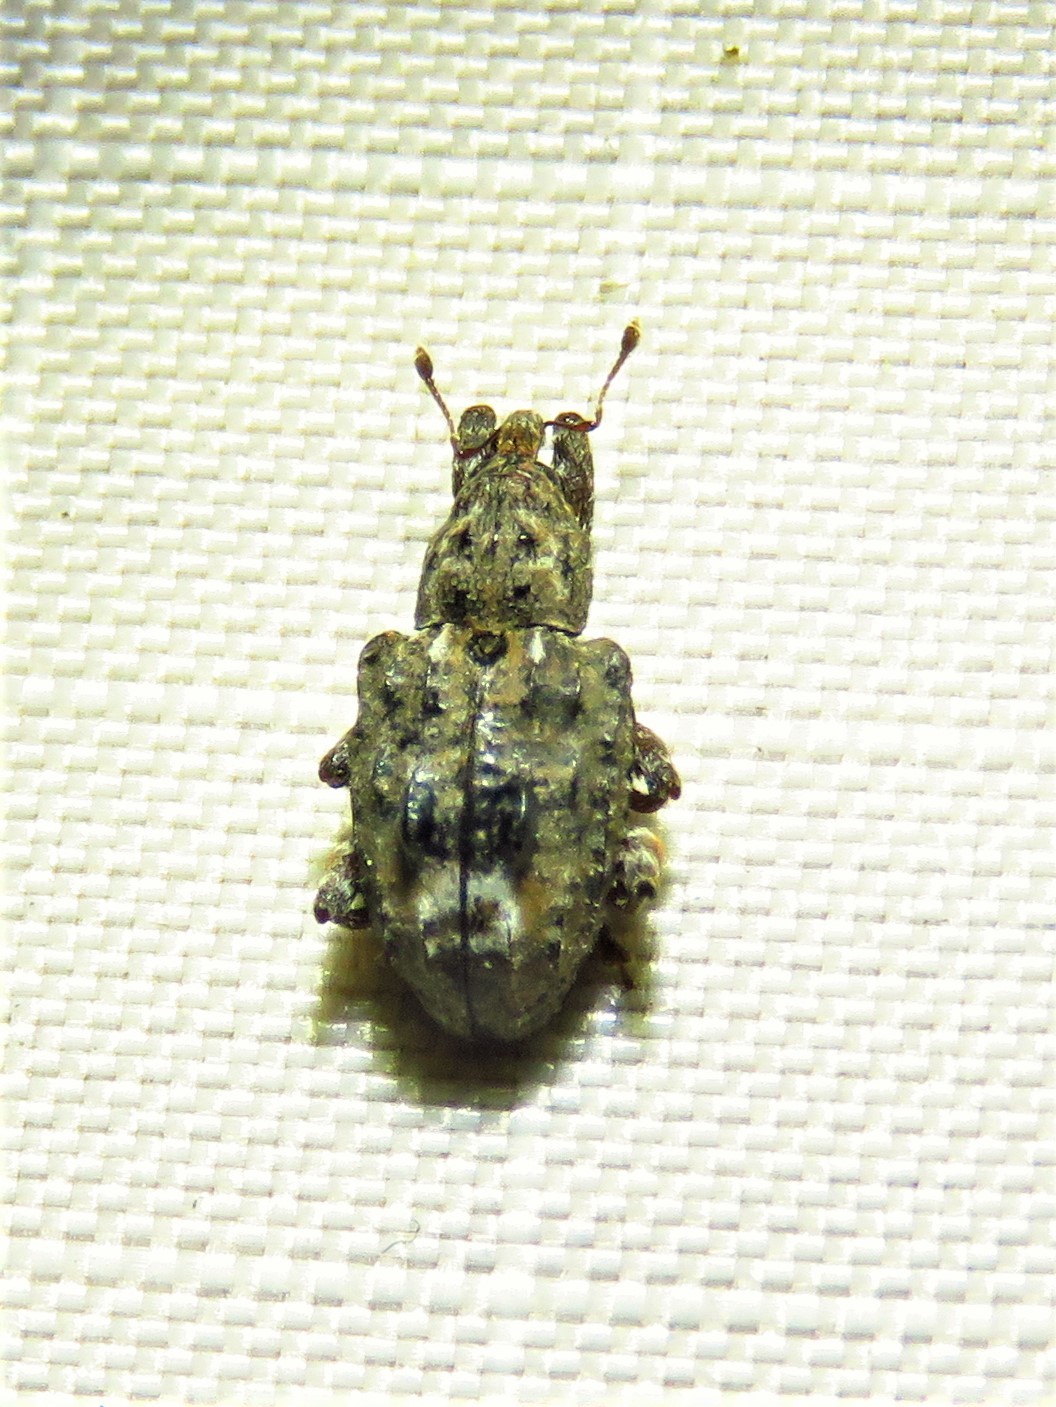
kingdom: Animalia
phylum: Arthropoda
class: Insecta
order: Coleoptera
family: Curculionidae
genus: Conotrachelus
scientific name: Conotrachelus nenuphar
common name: Plum curculio
